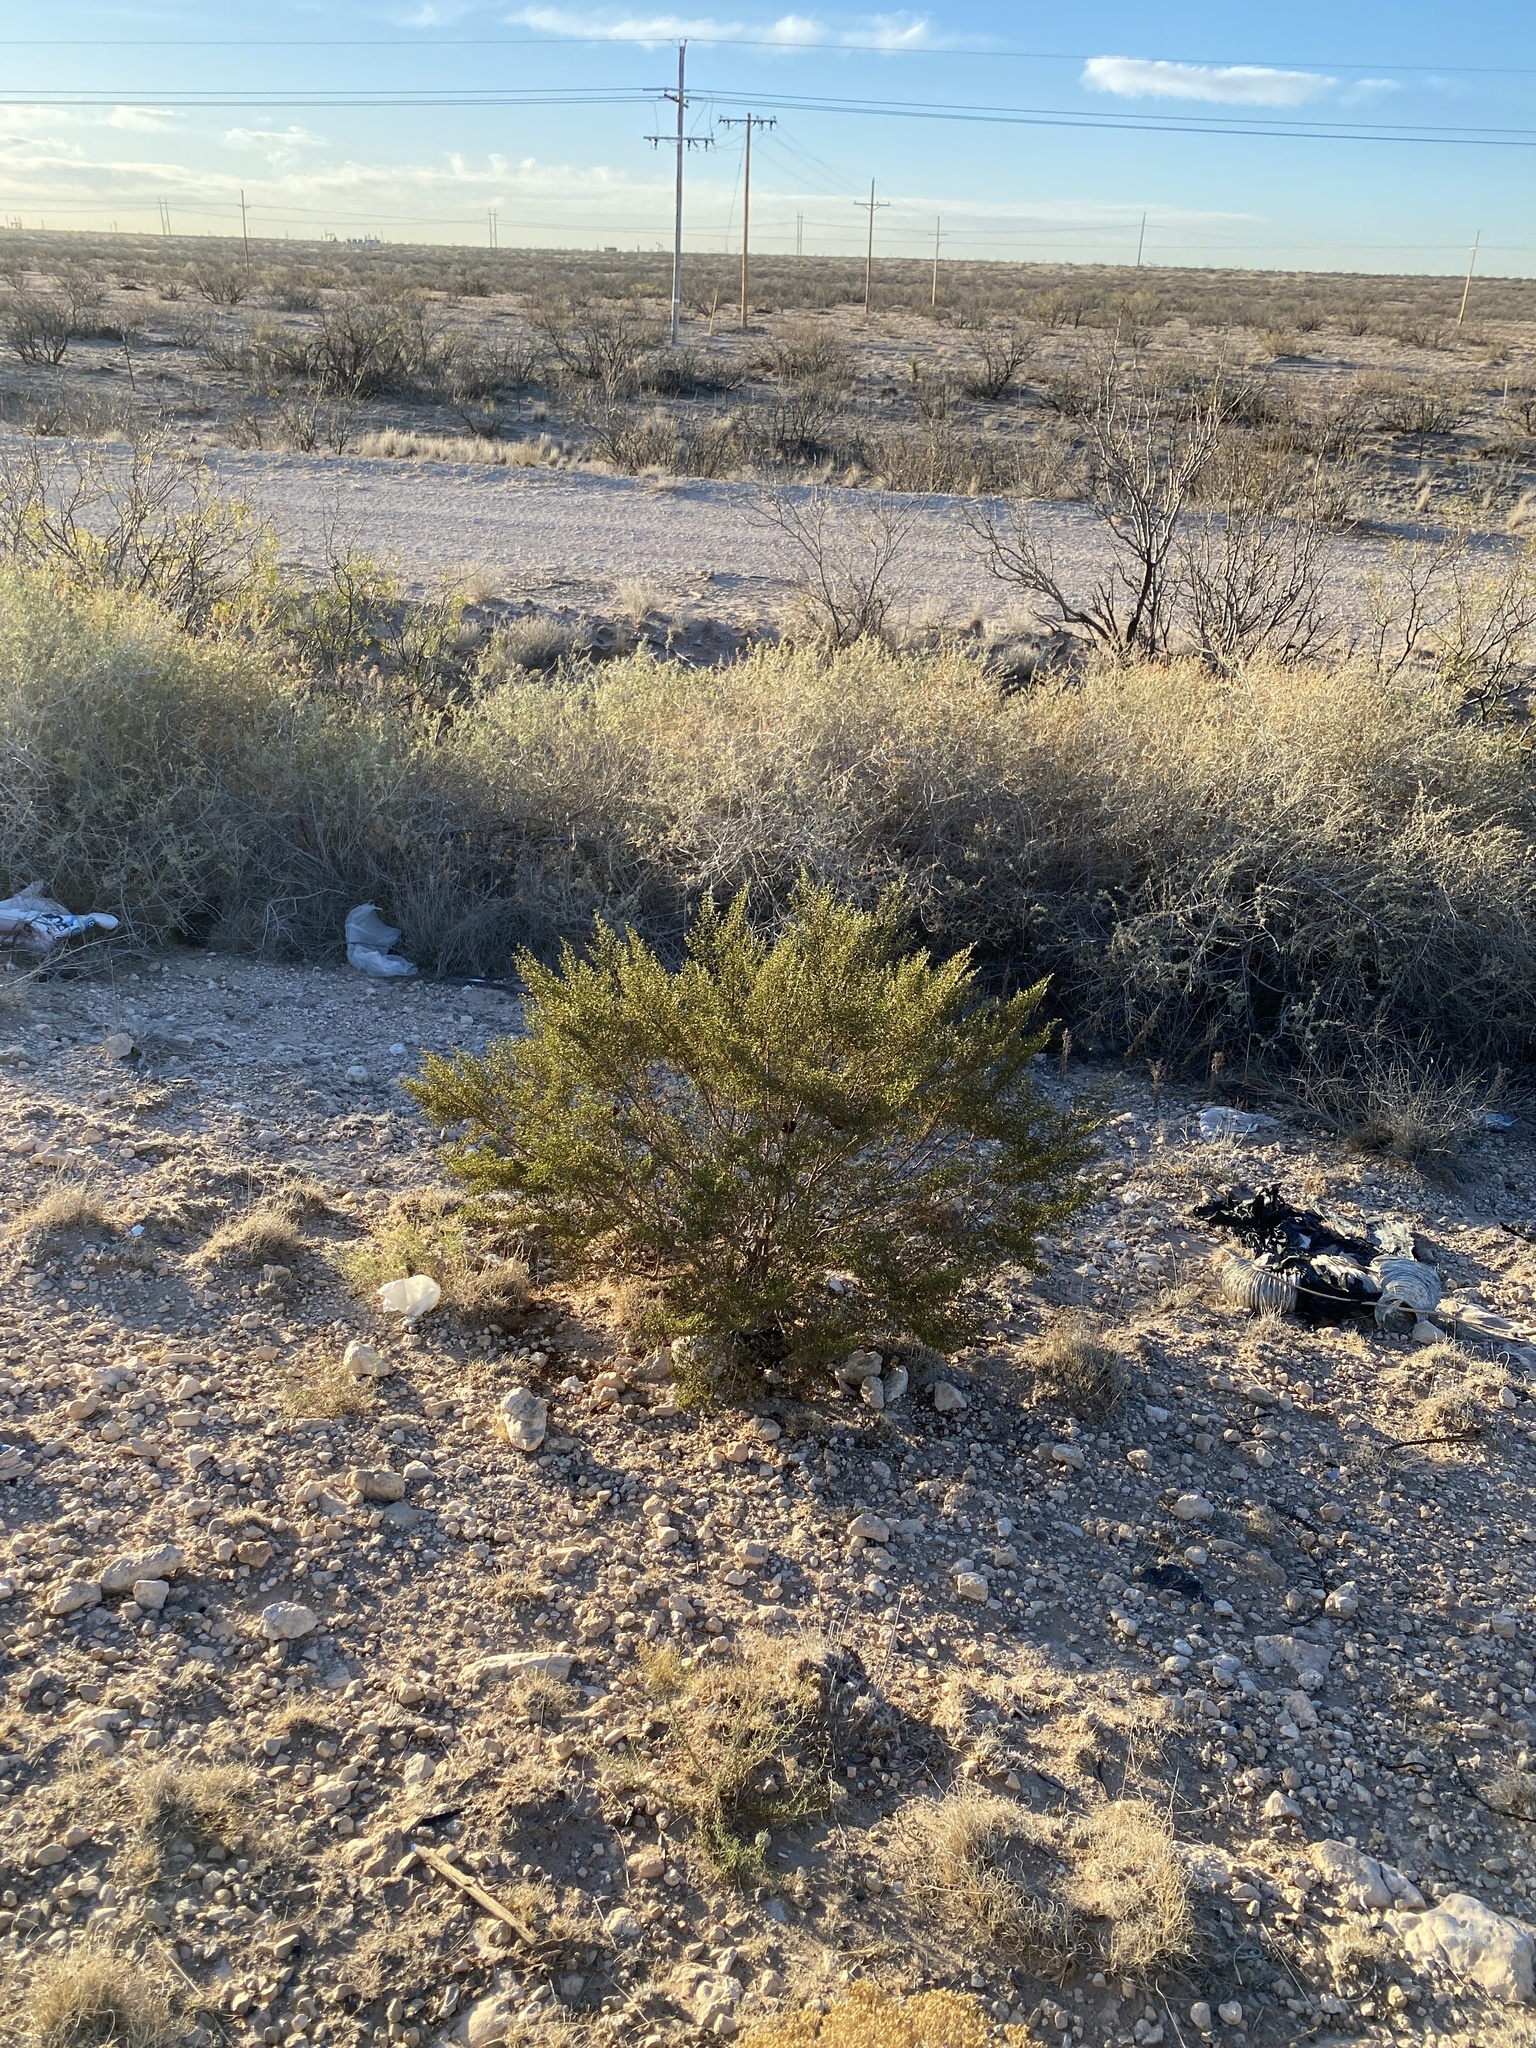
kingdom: Plantae
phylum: Tracheophyta
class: Magnoliopsida
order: Zygophyllales
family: Zygophyllaceae
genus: Larrea
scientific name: Larrea tridentata
